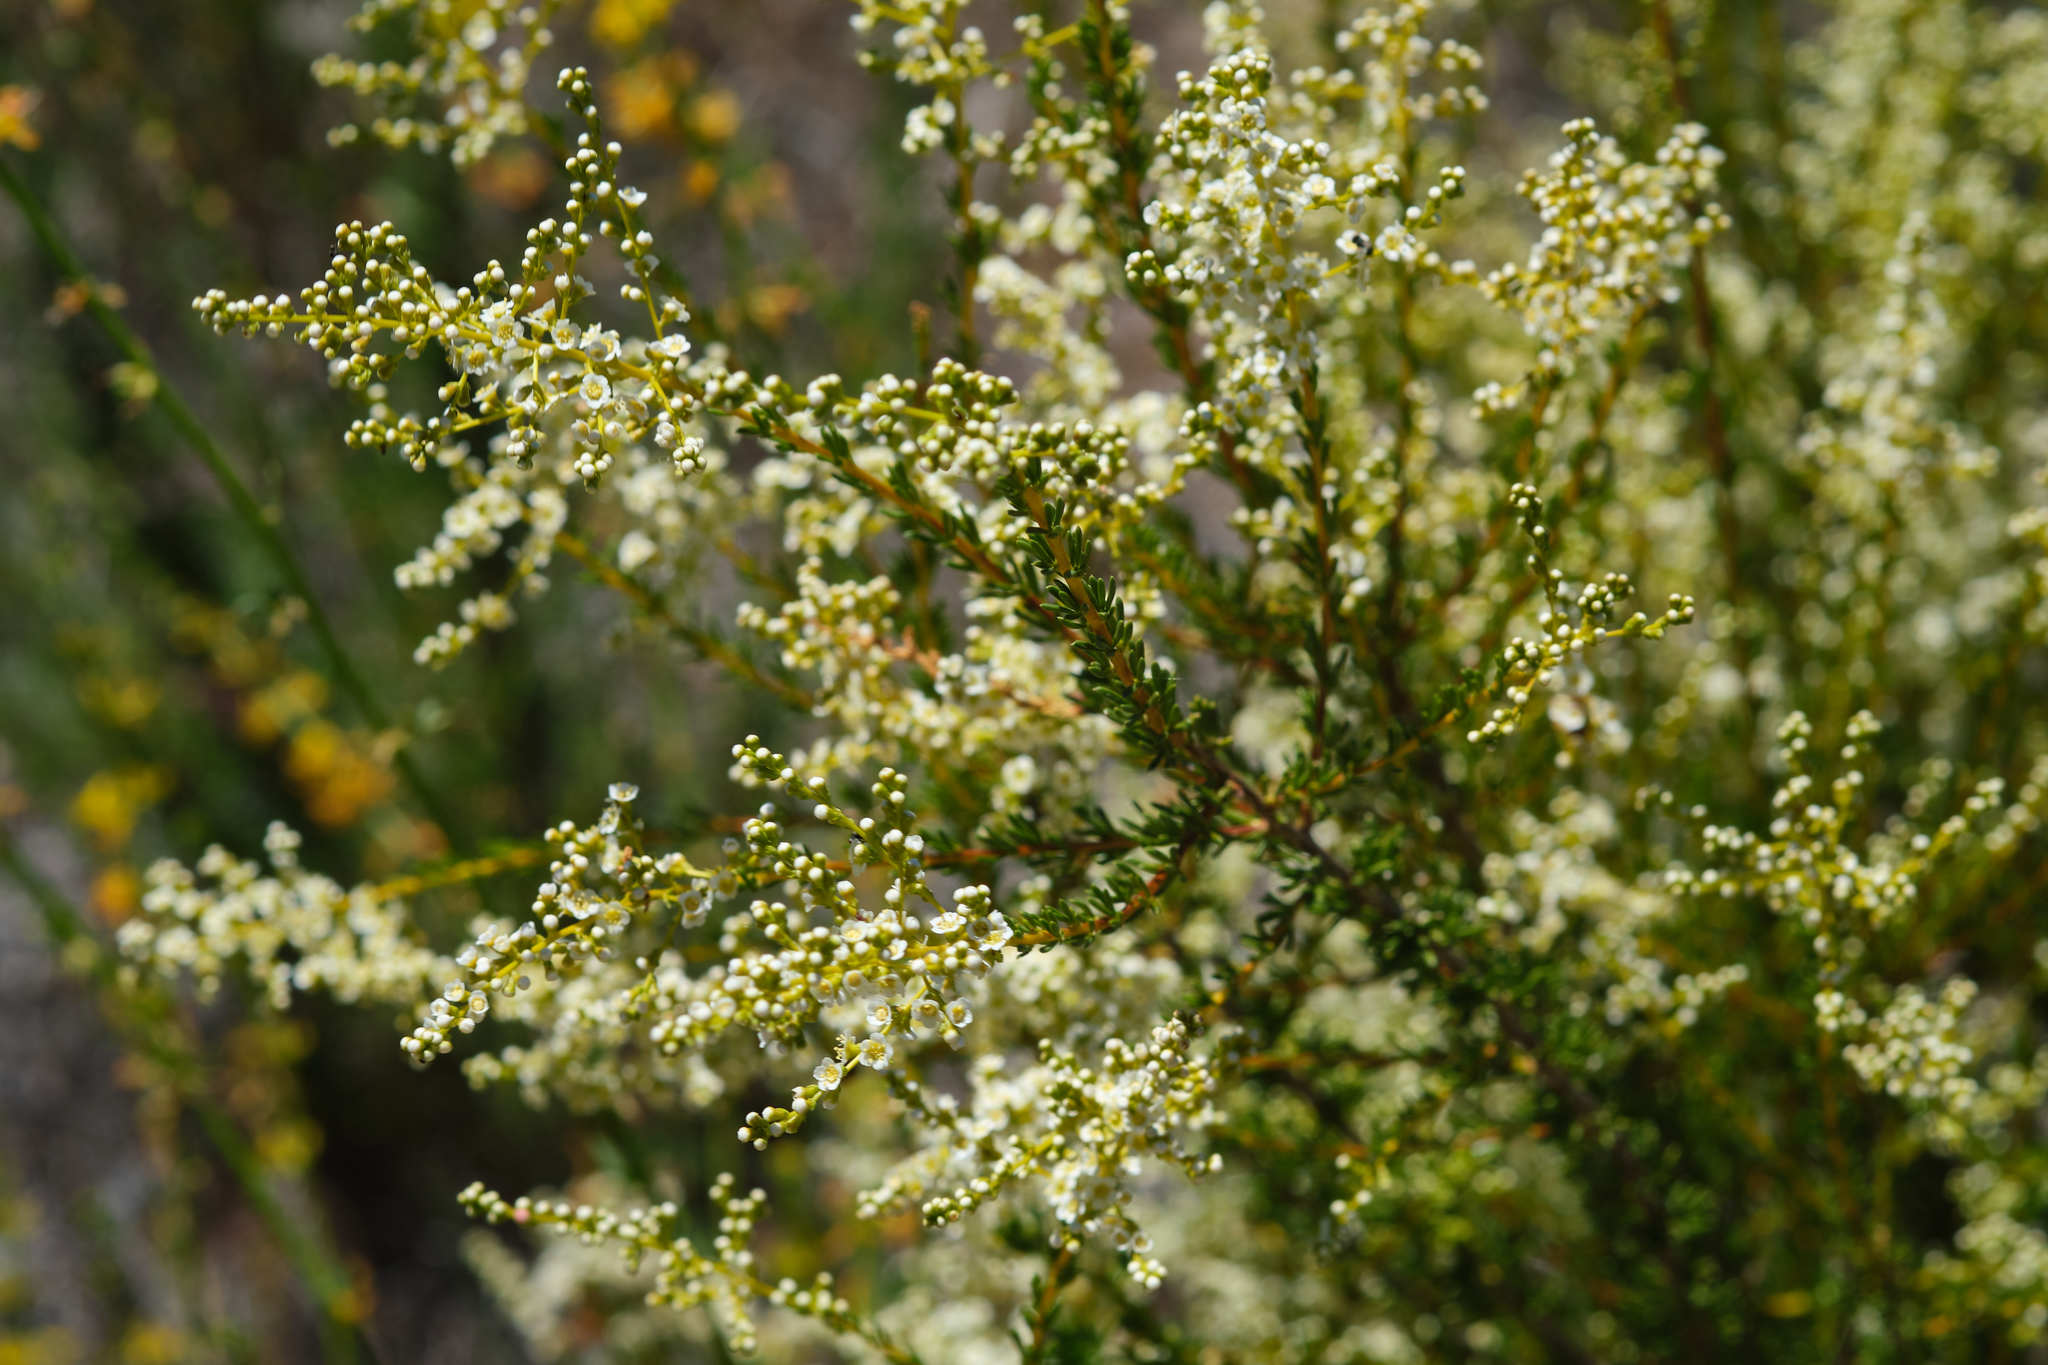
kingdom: Plantae
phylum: Tracheophyta
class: Magnoliopsida
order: Rosales
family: Rosaceae
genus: Adenostoma
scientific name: Adenostoma fasciculatum
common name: Chamise
